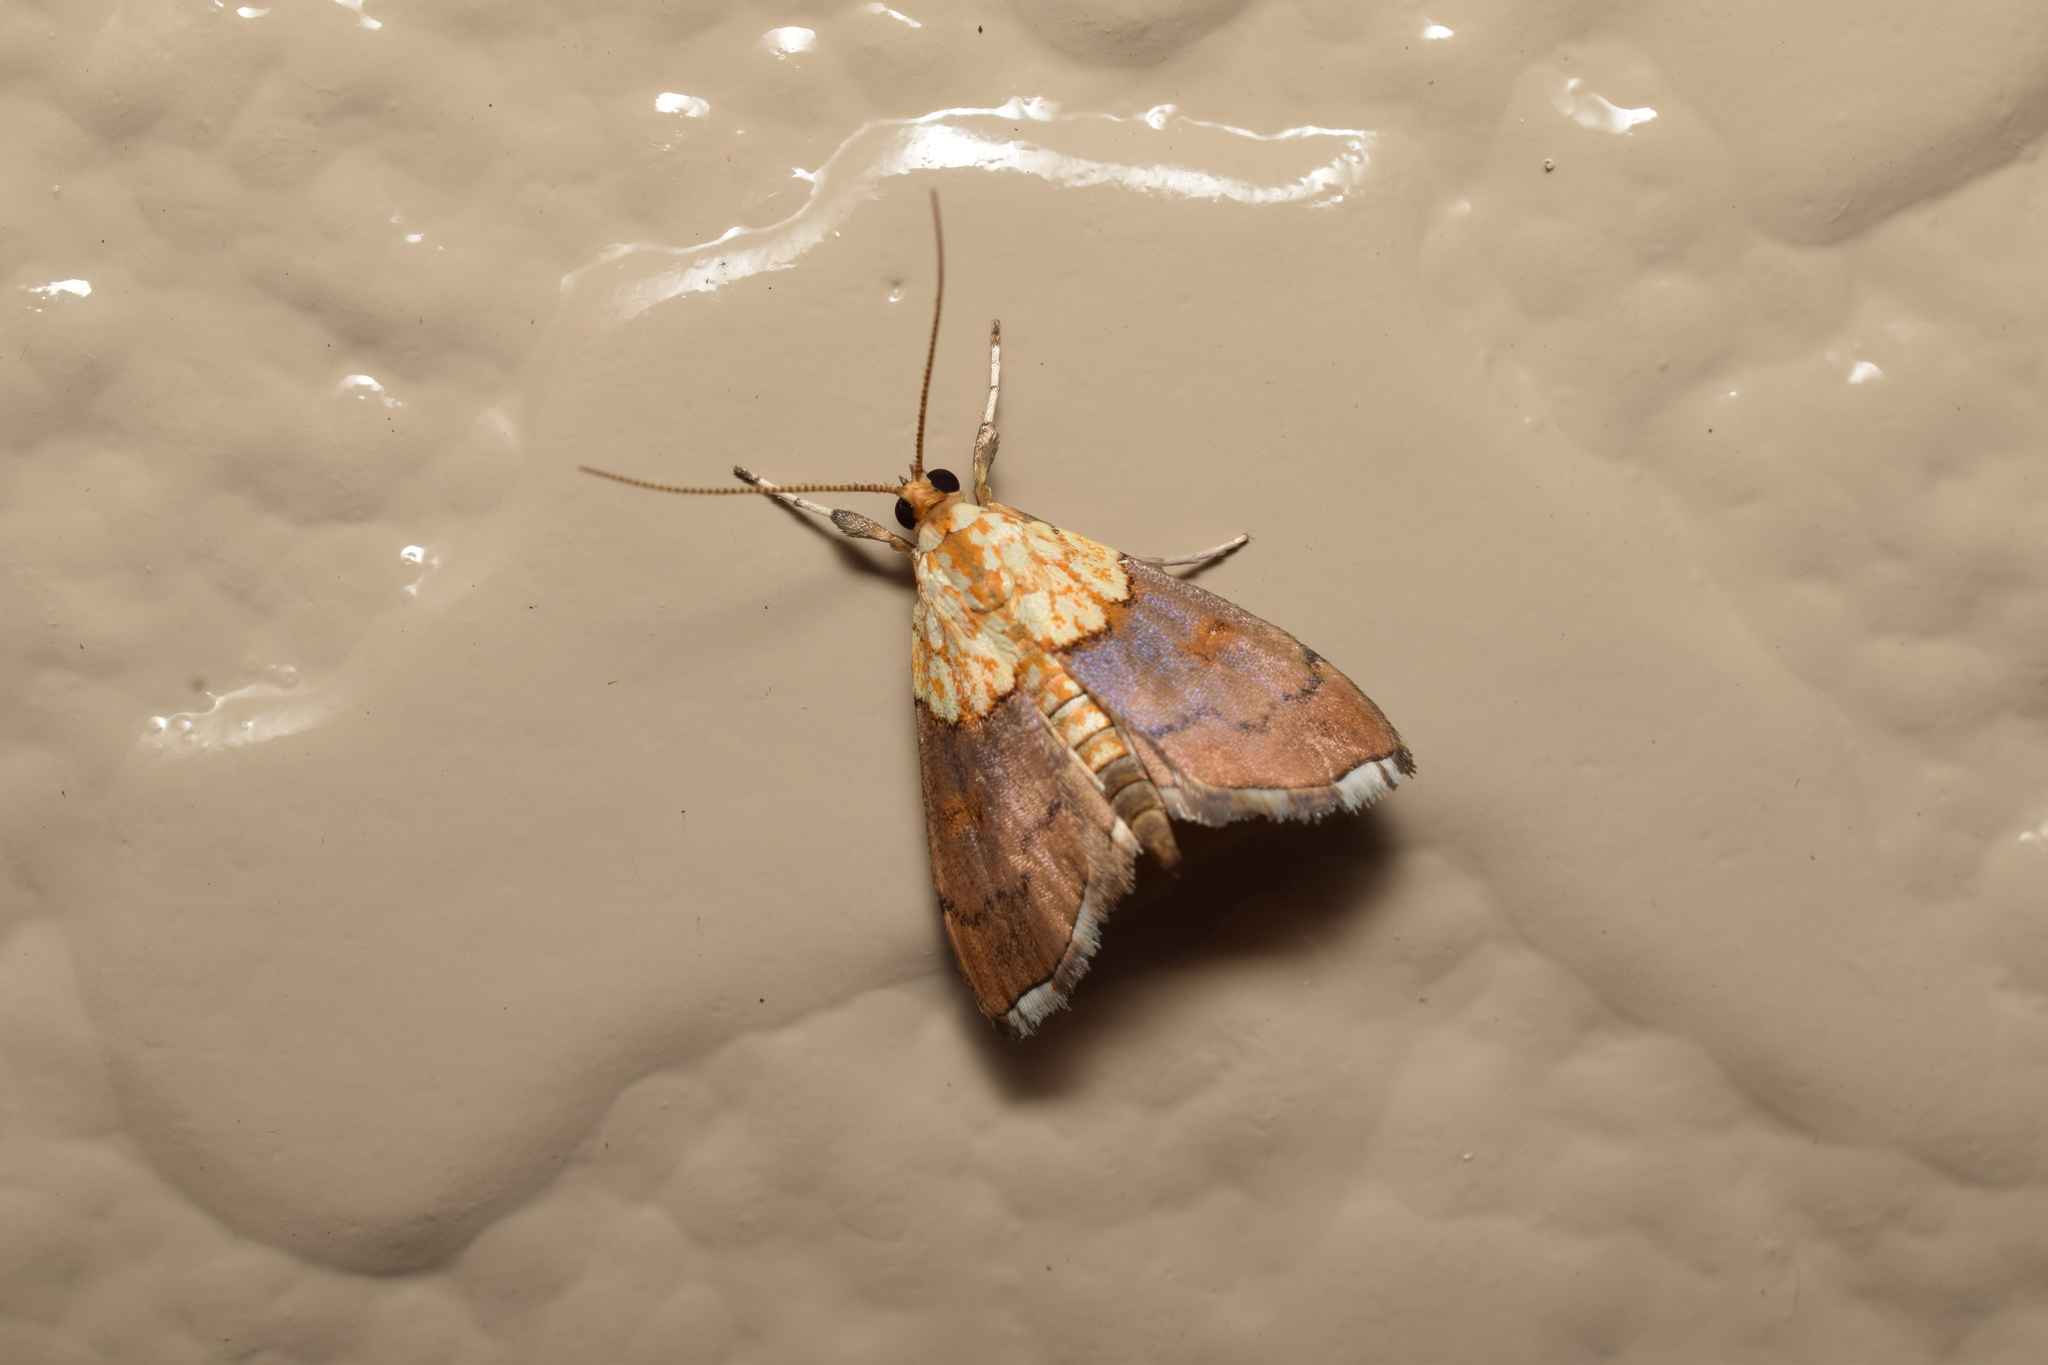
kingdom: Animalia
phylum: Arthropoda
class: Insecta
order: Lepidoptera
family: Crambidae
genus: Agrotera
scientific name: Agrotera nemoralis
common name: Beautiful pearl
